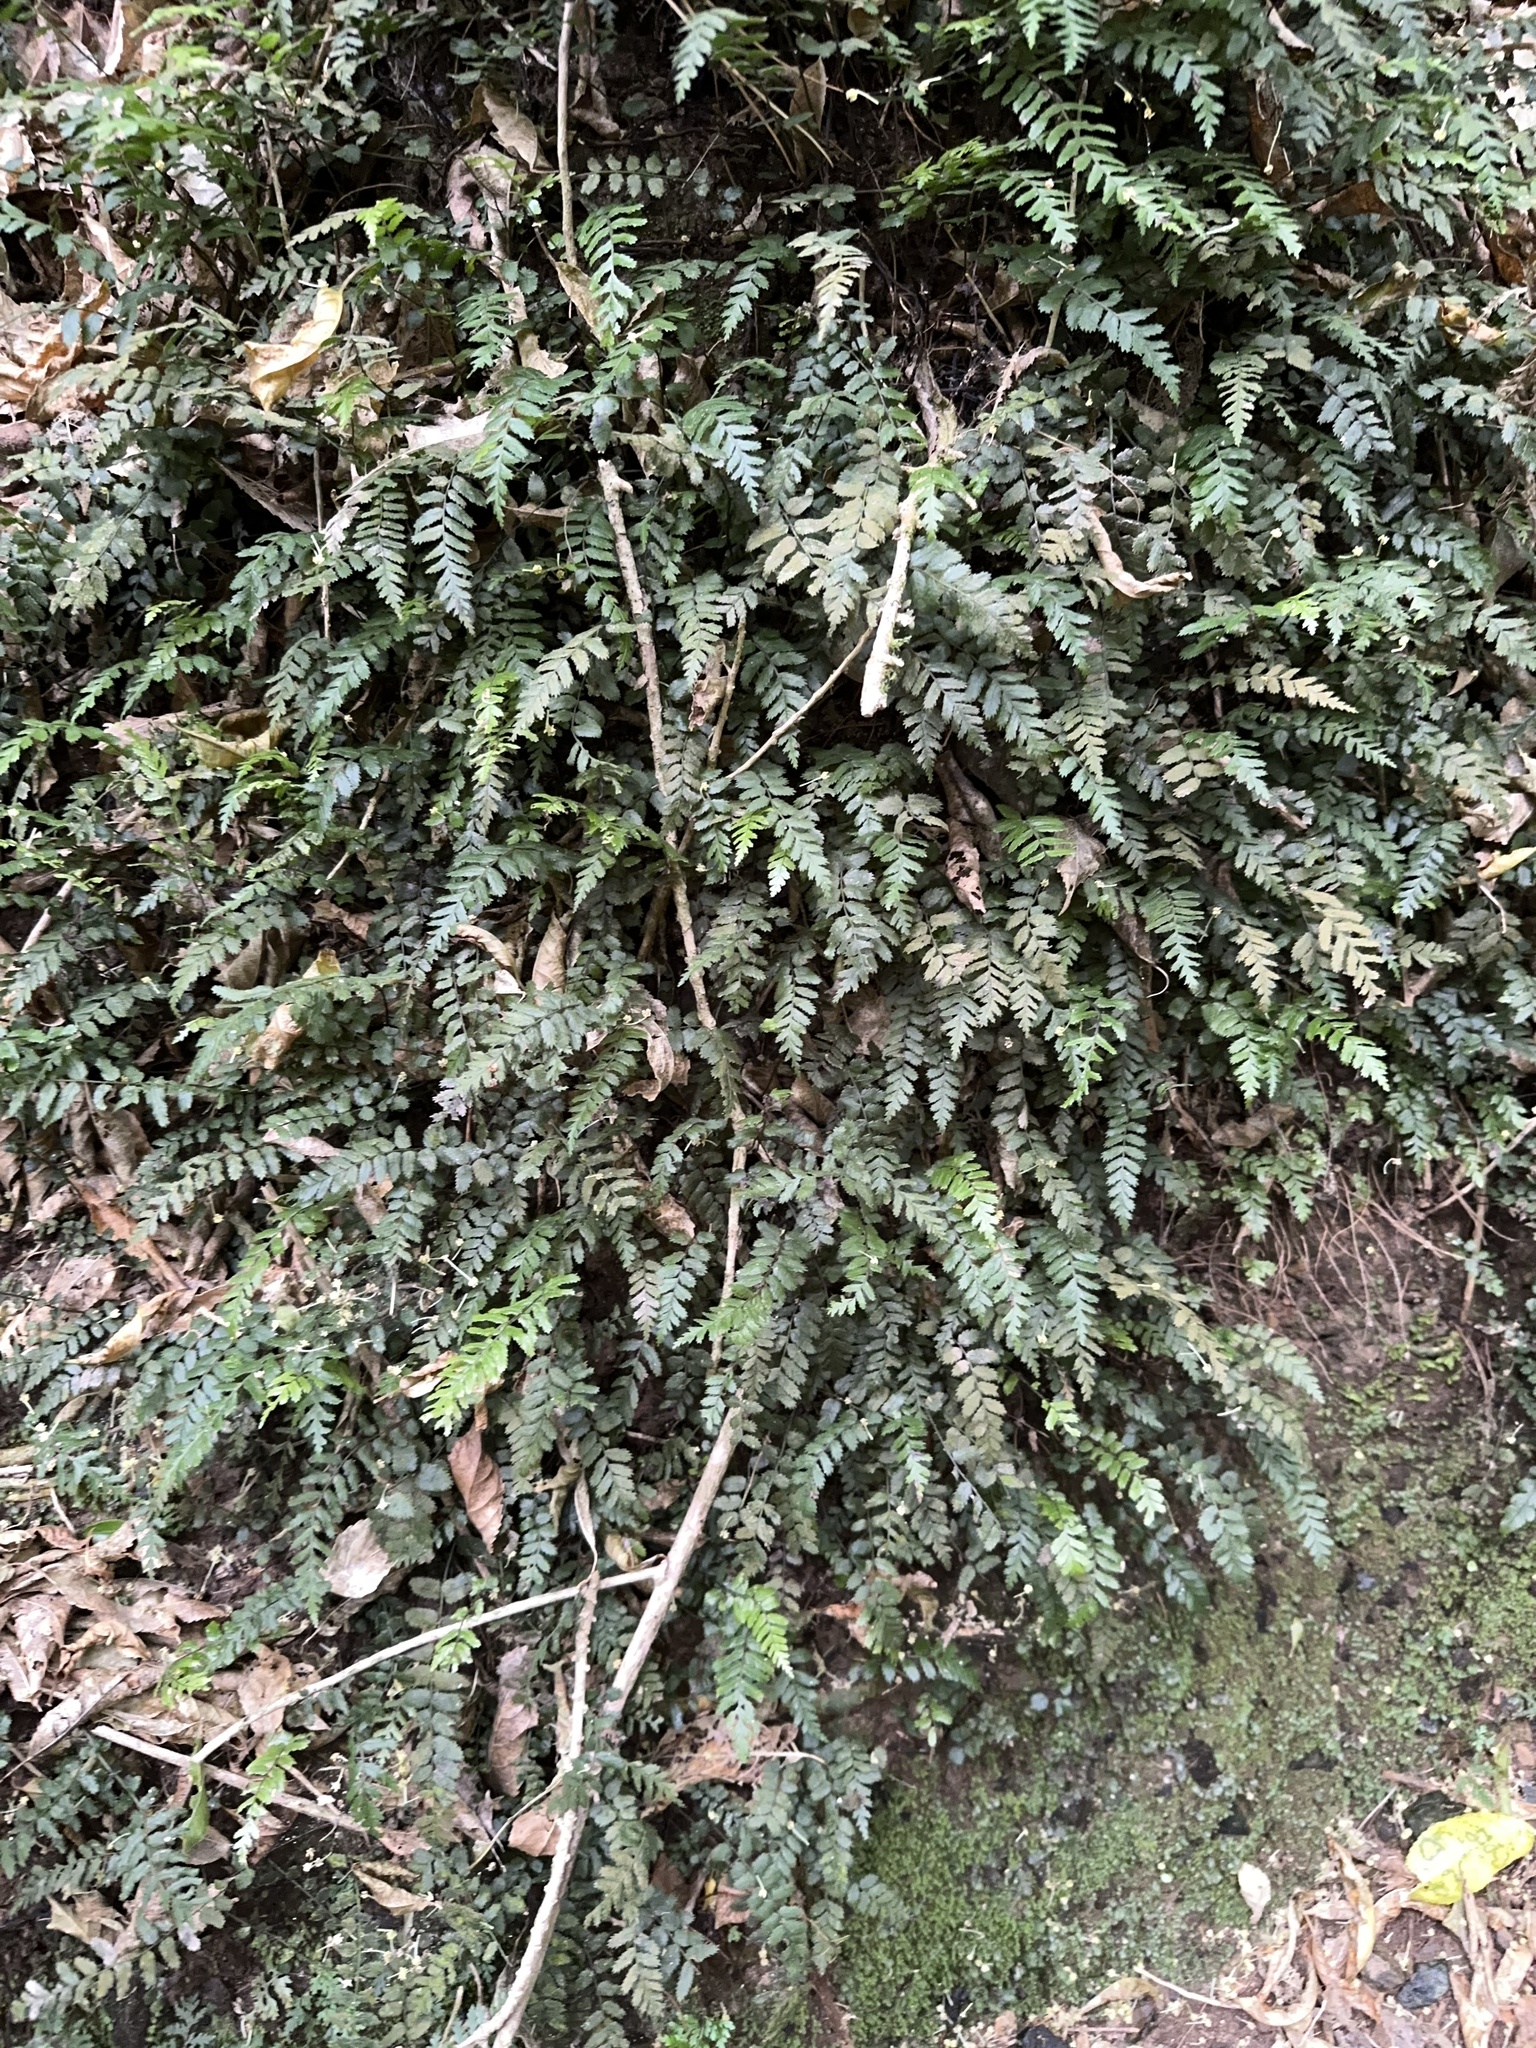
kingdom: Plantae
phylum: Tracheophyta
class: Polypodiopsida
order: Polypodiales
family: Blechnaceae
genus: Icarus
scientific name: Icarus filiformis
